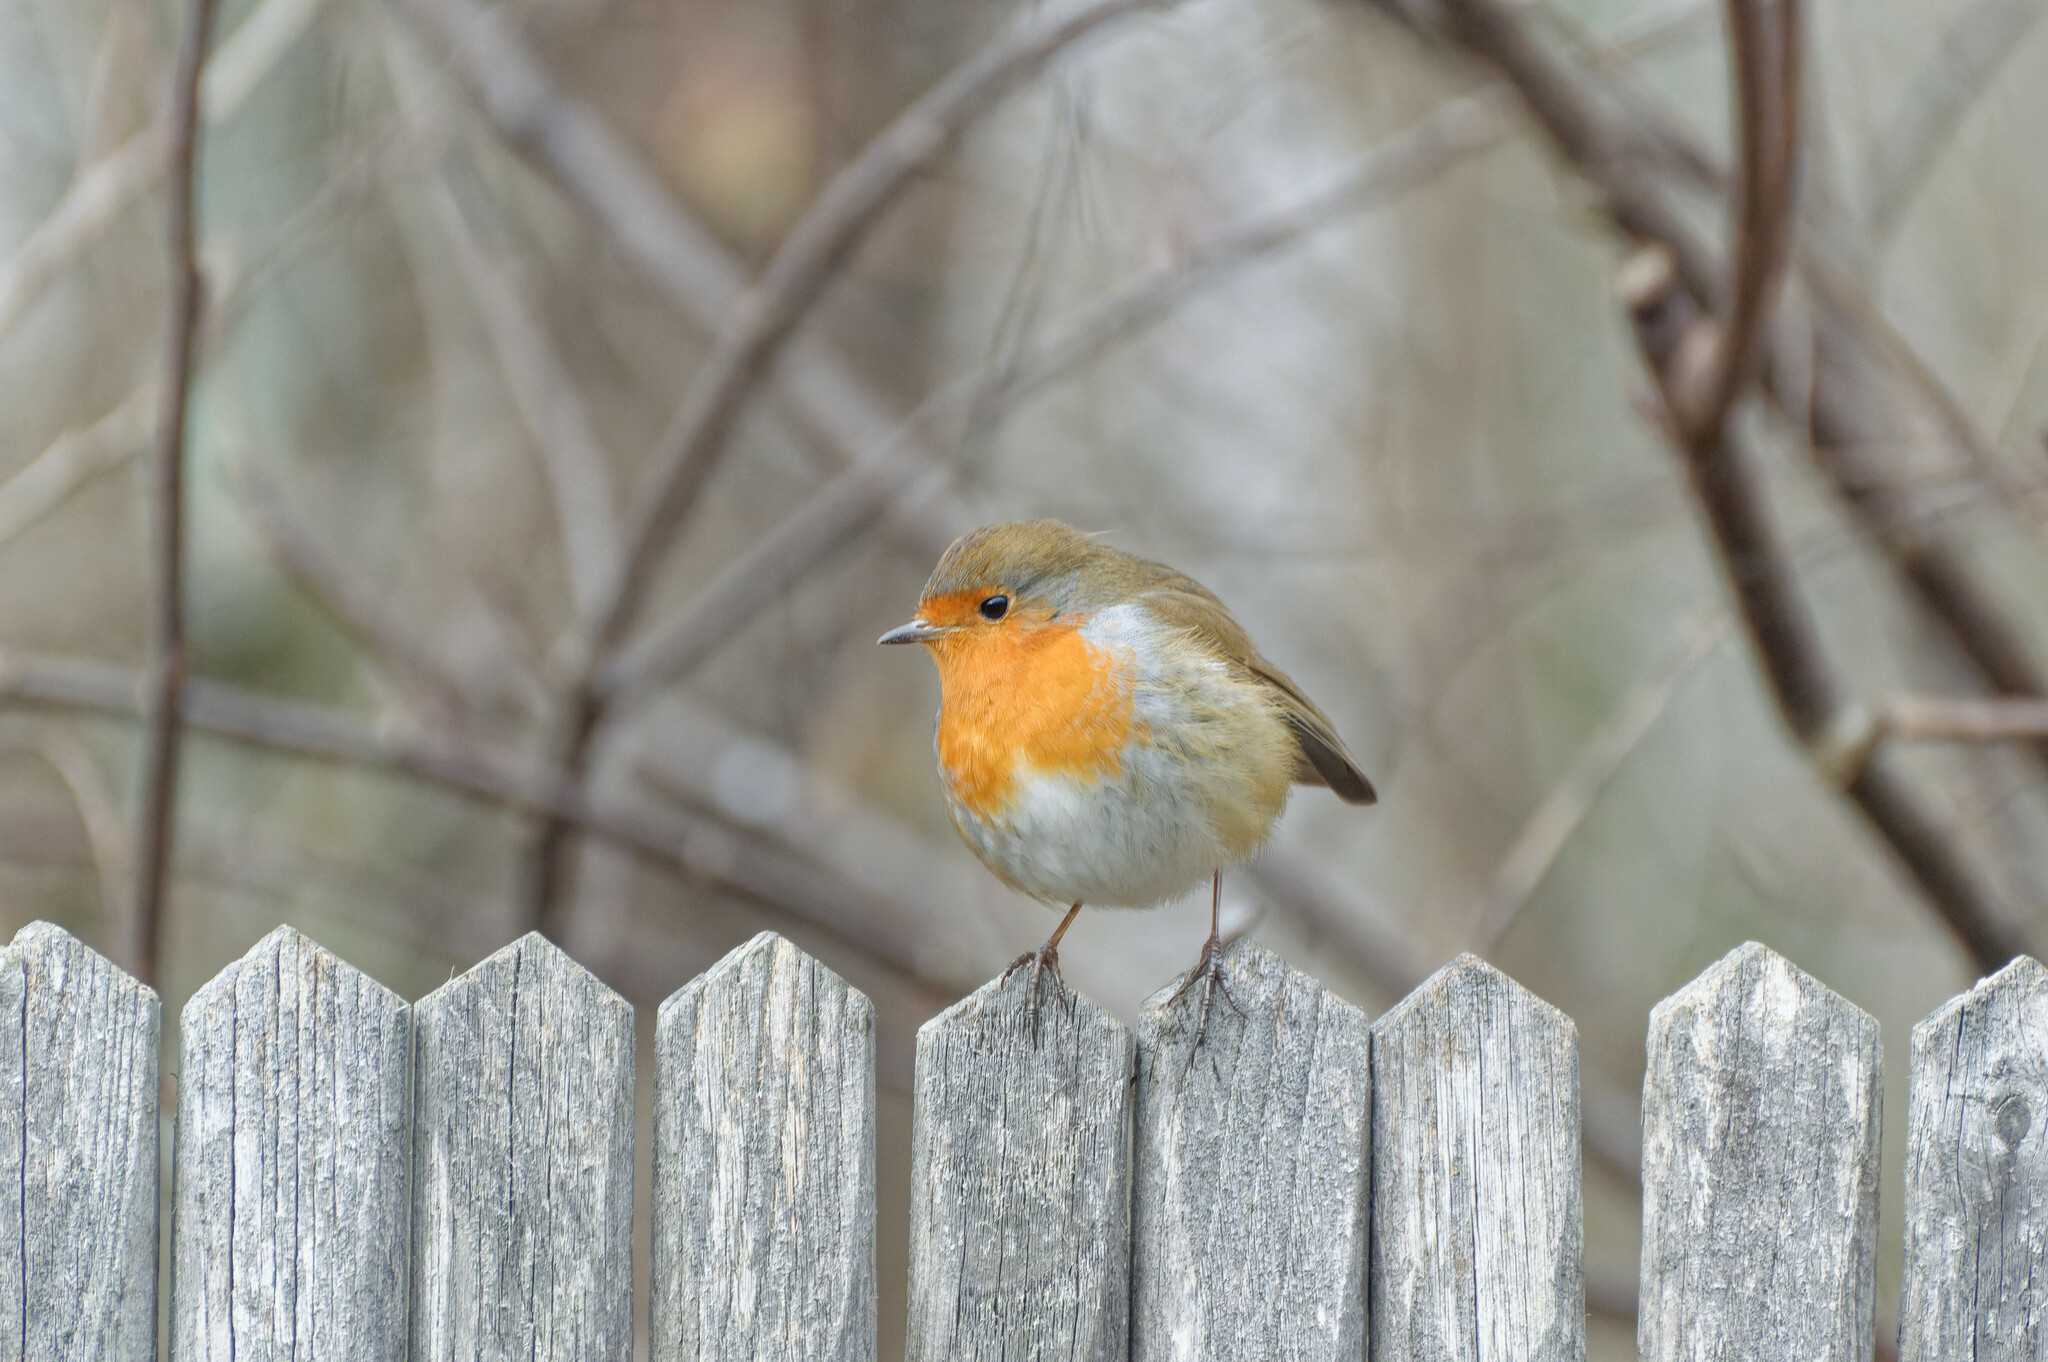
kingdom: Animalia
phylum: Chordata
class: Aves
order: Passeriformes
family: Muscicapidae
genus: Erithacus
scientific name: Erithacus rubecula
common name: European robin
